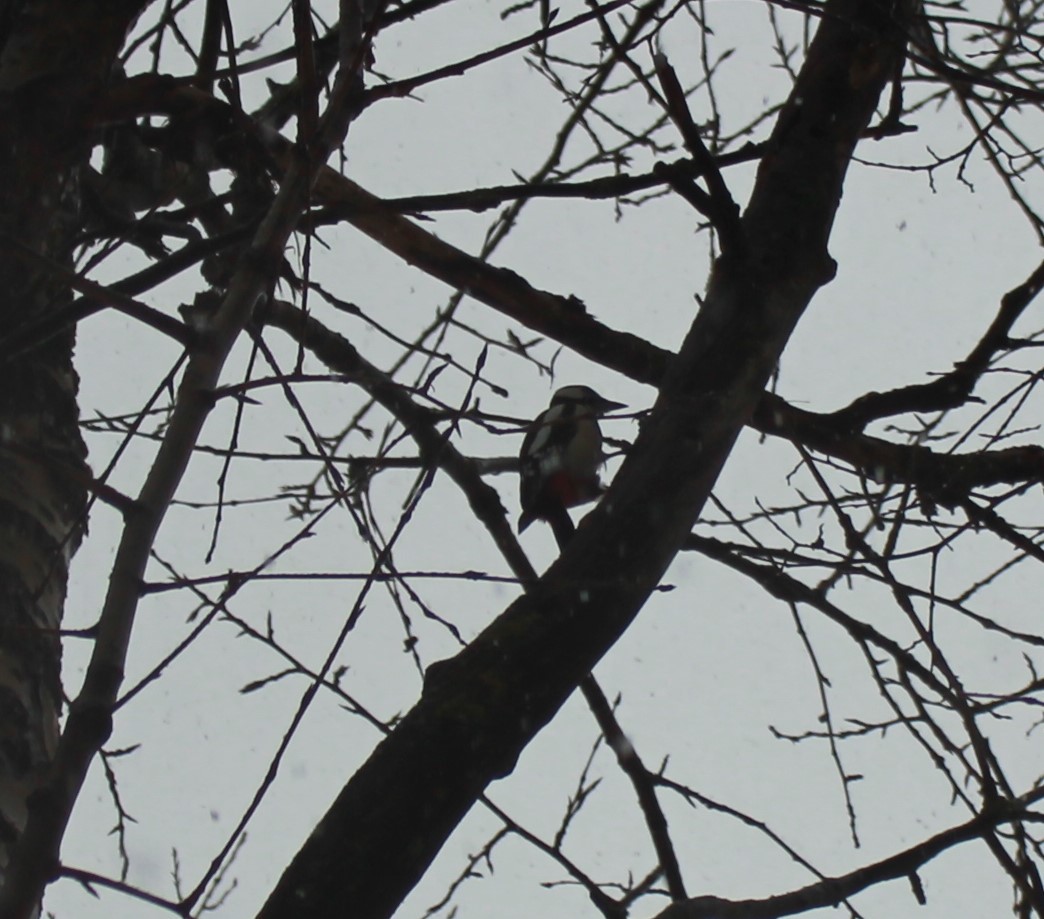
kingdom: Animalia
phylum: Chordata
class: Aves
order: Piciformes
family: Picidae
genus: Dendrocopos
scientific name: Dendrocopos major
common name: Great spotted woodpecker
